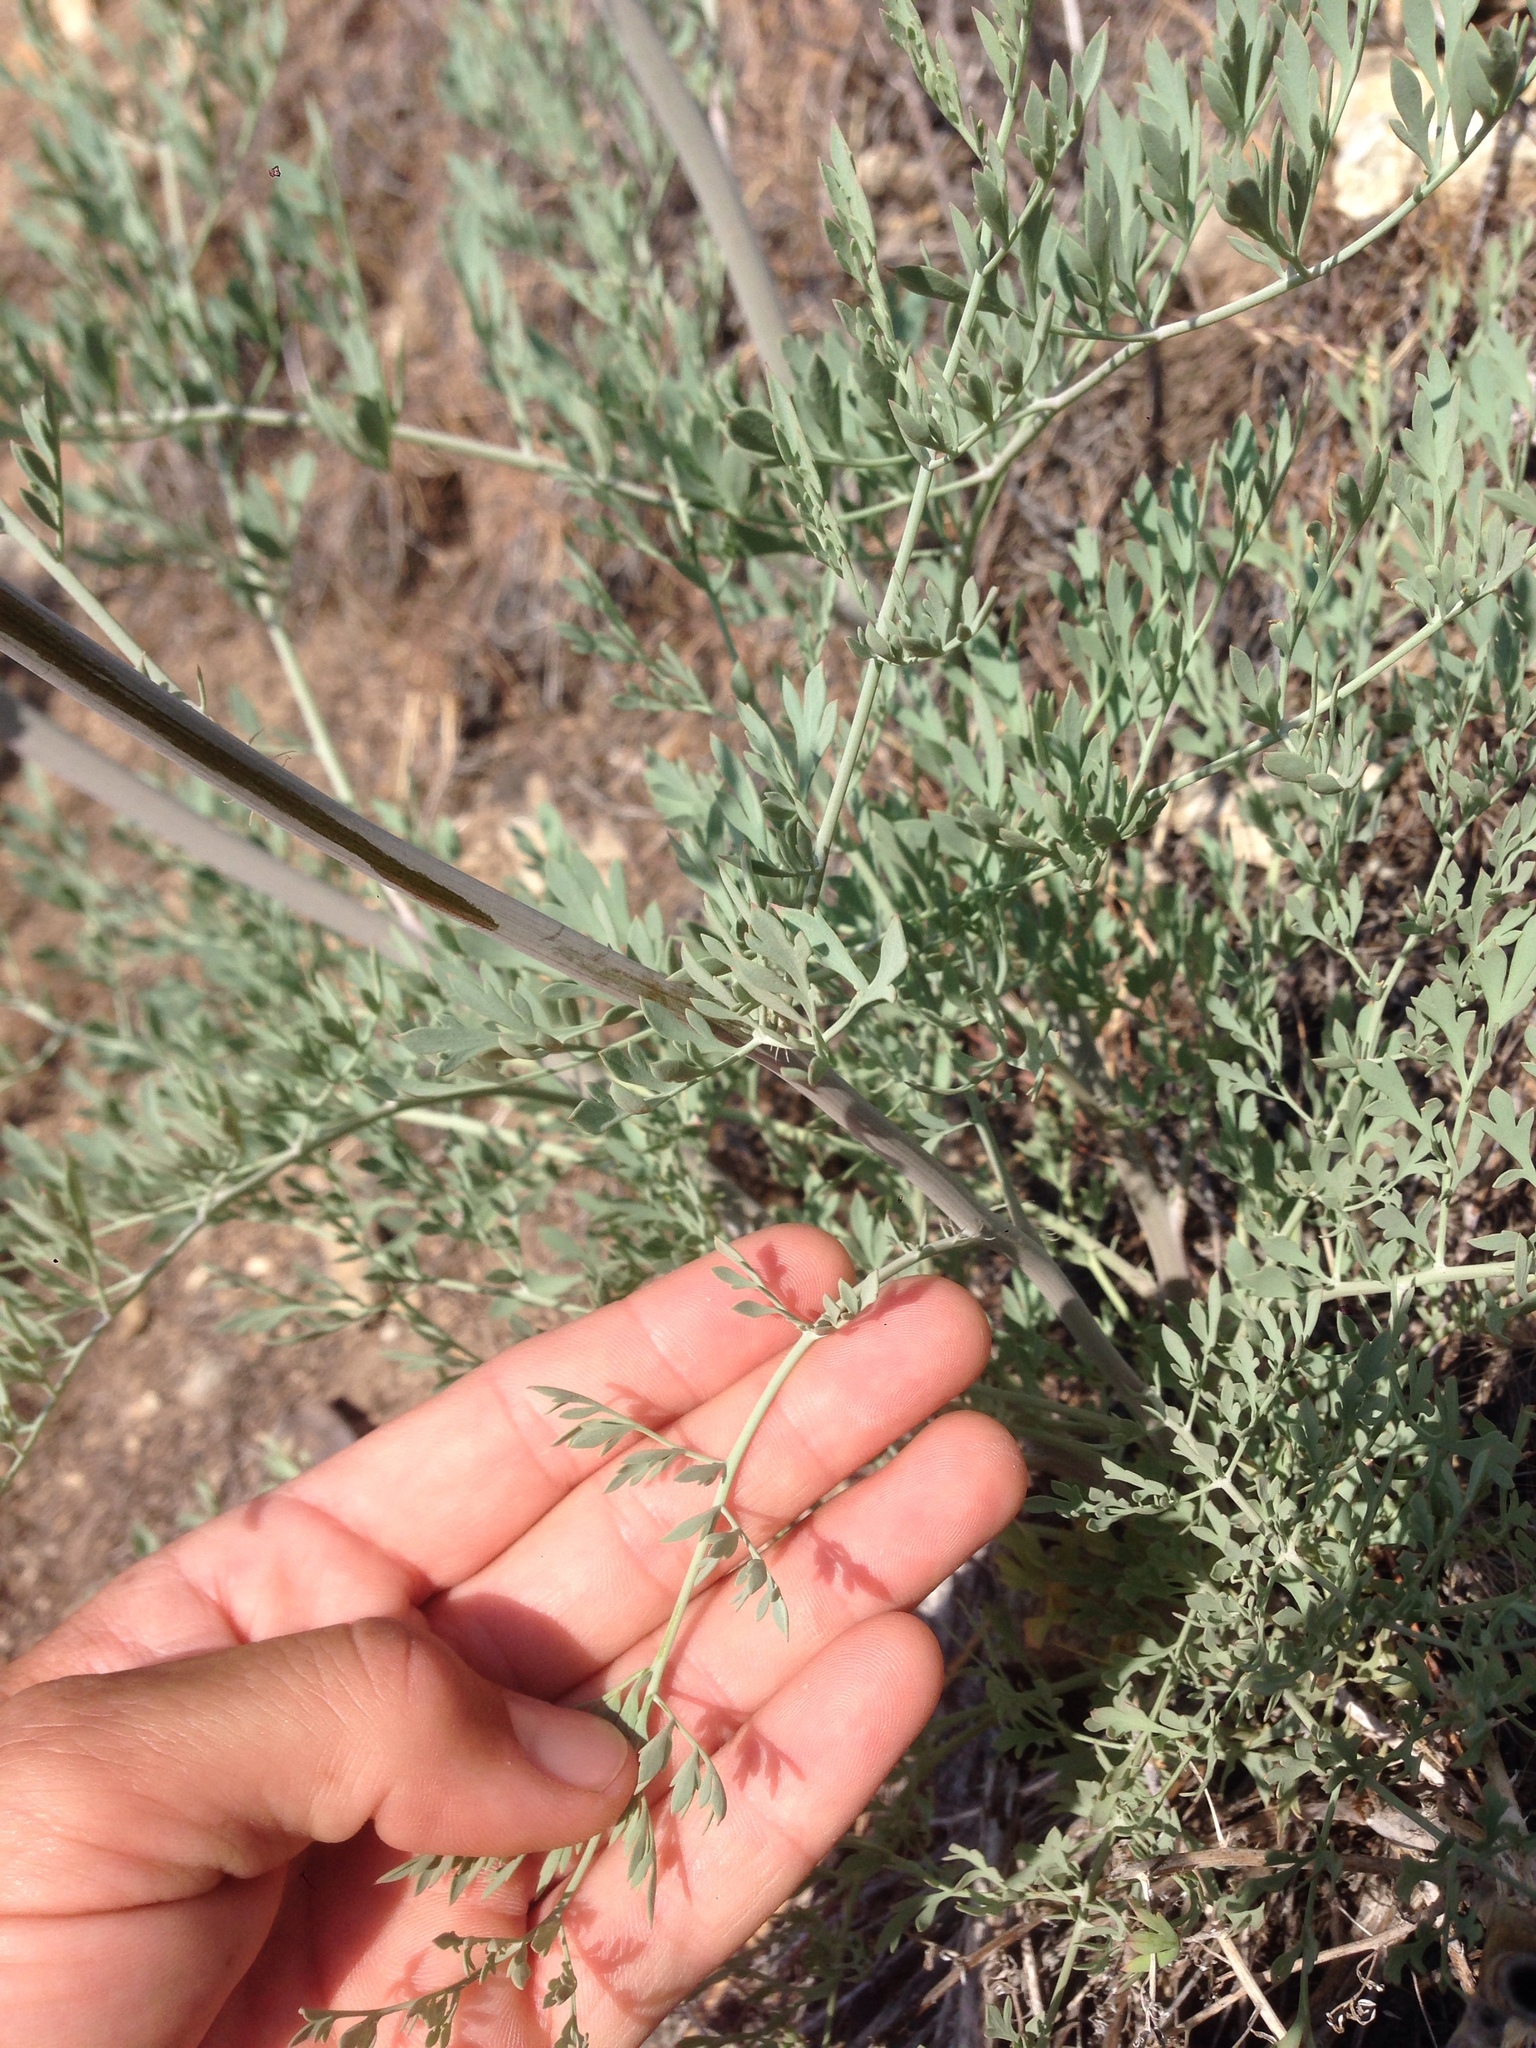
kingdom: Plantae
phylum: Tracheophyta
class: Magnoliopsida
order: Ranunculales
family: Papaveraceae
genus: Ehrendorferia
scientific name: Ehrendorferia chrysantha
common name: Golden eardrops
